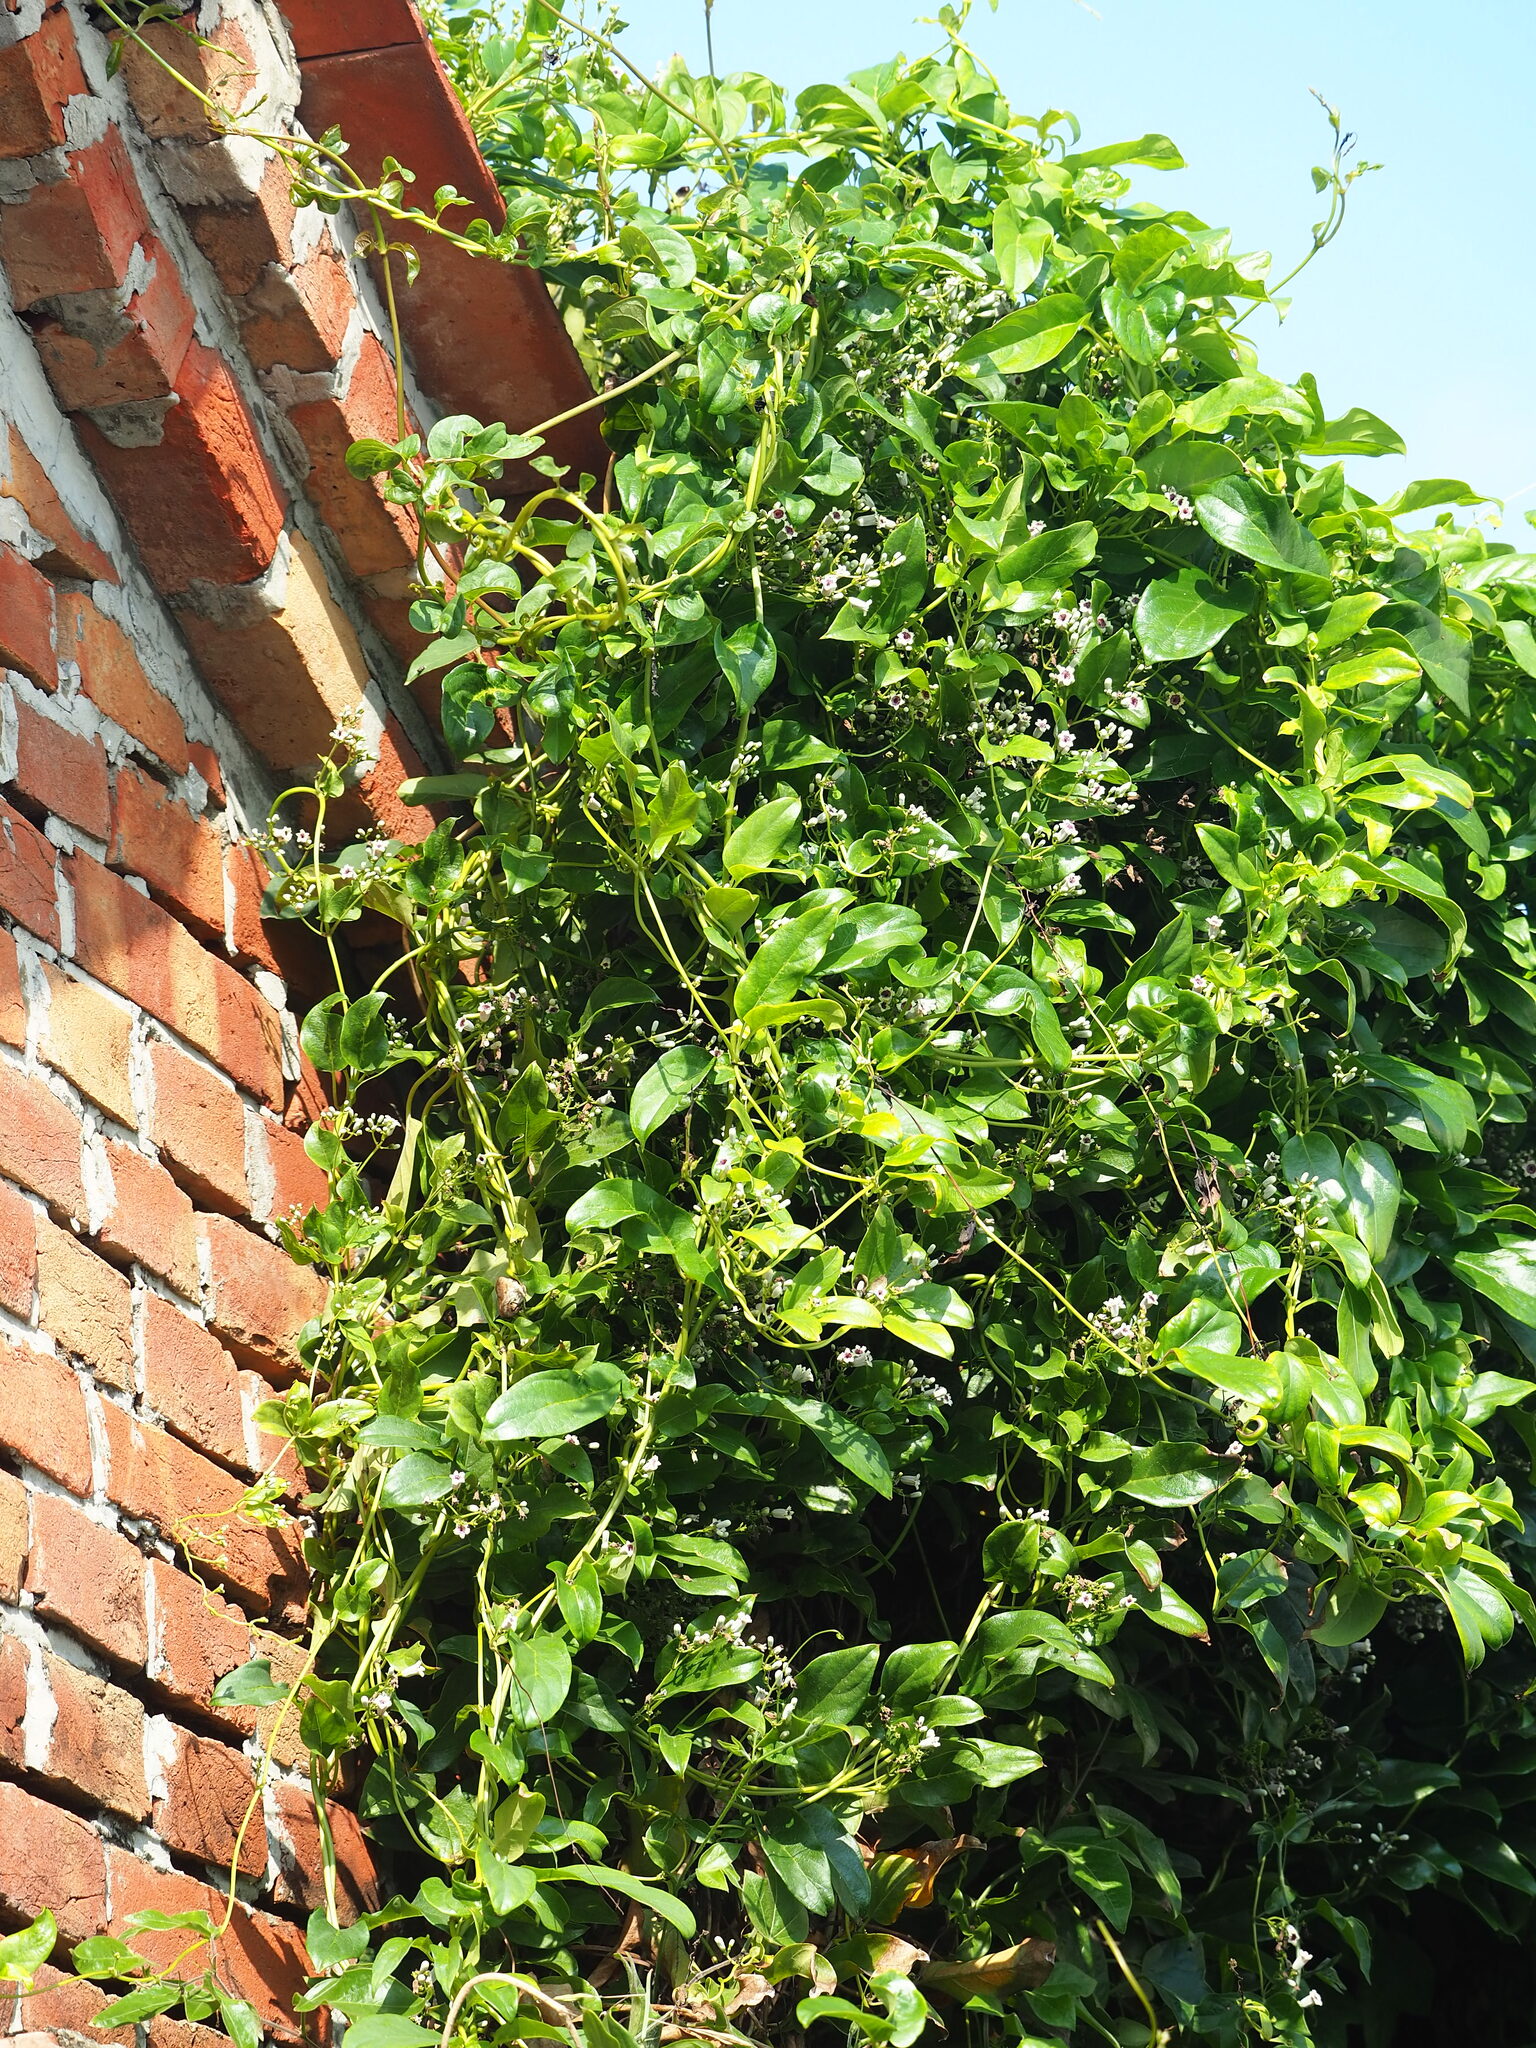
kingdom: Plantae
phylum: Tracheophyta
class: Magnoliopsida
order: Gentianales
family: Rubiaceae
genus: Paederia
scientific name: Paederia foetida
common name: Stinkvine
